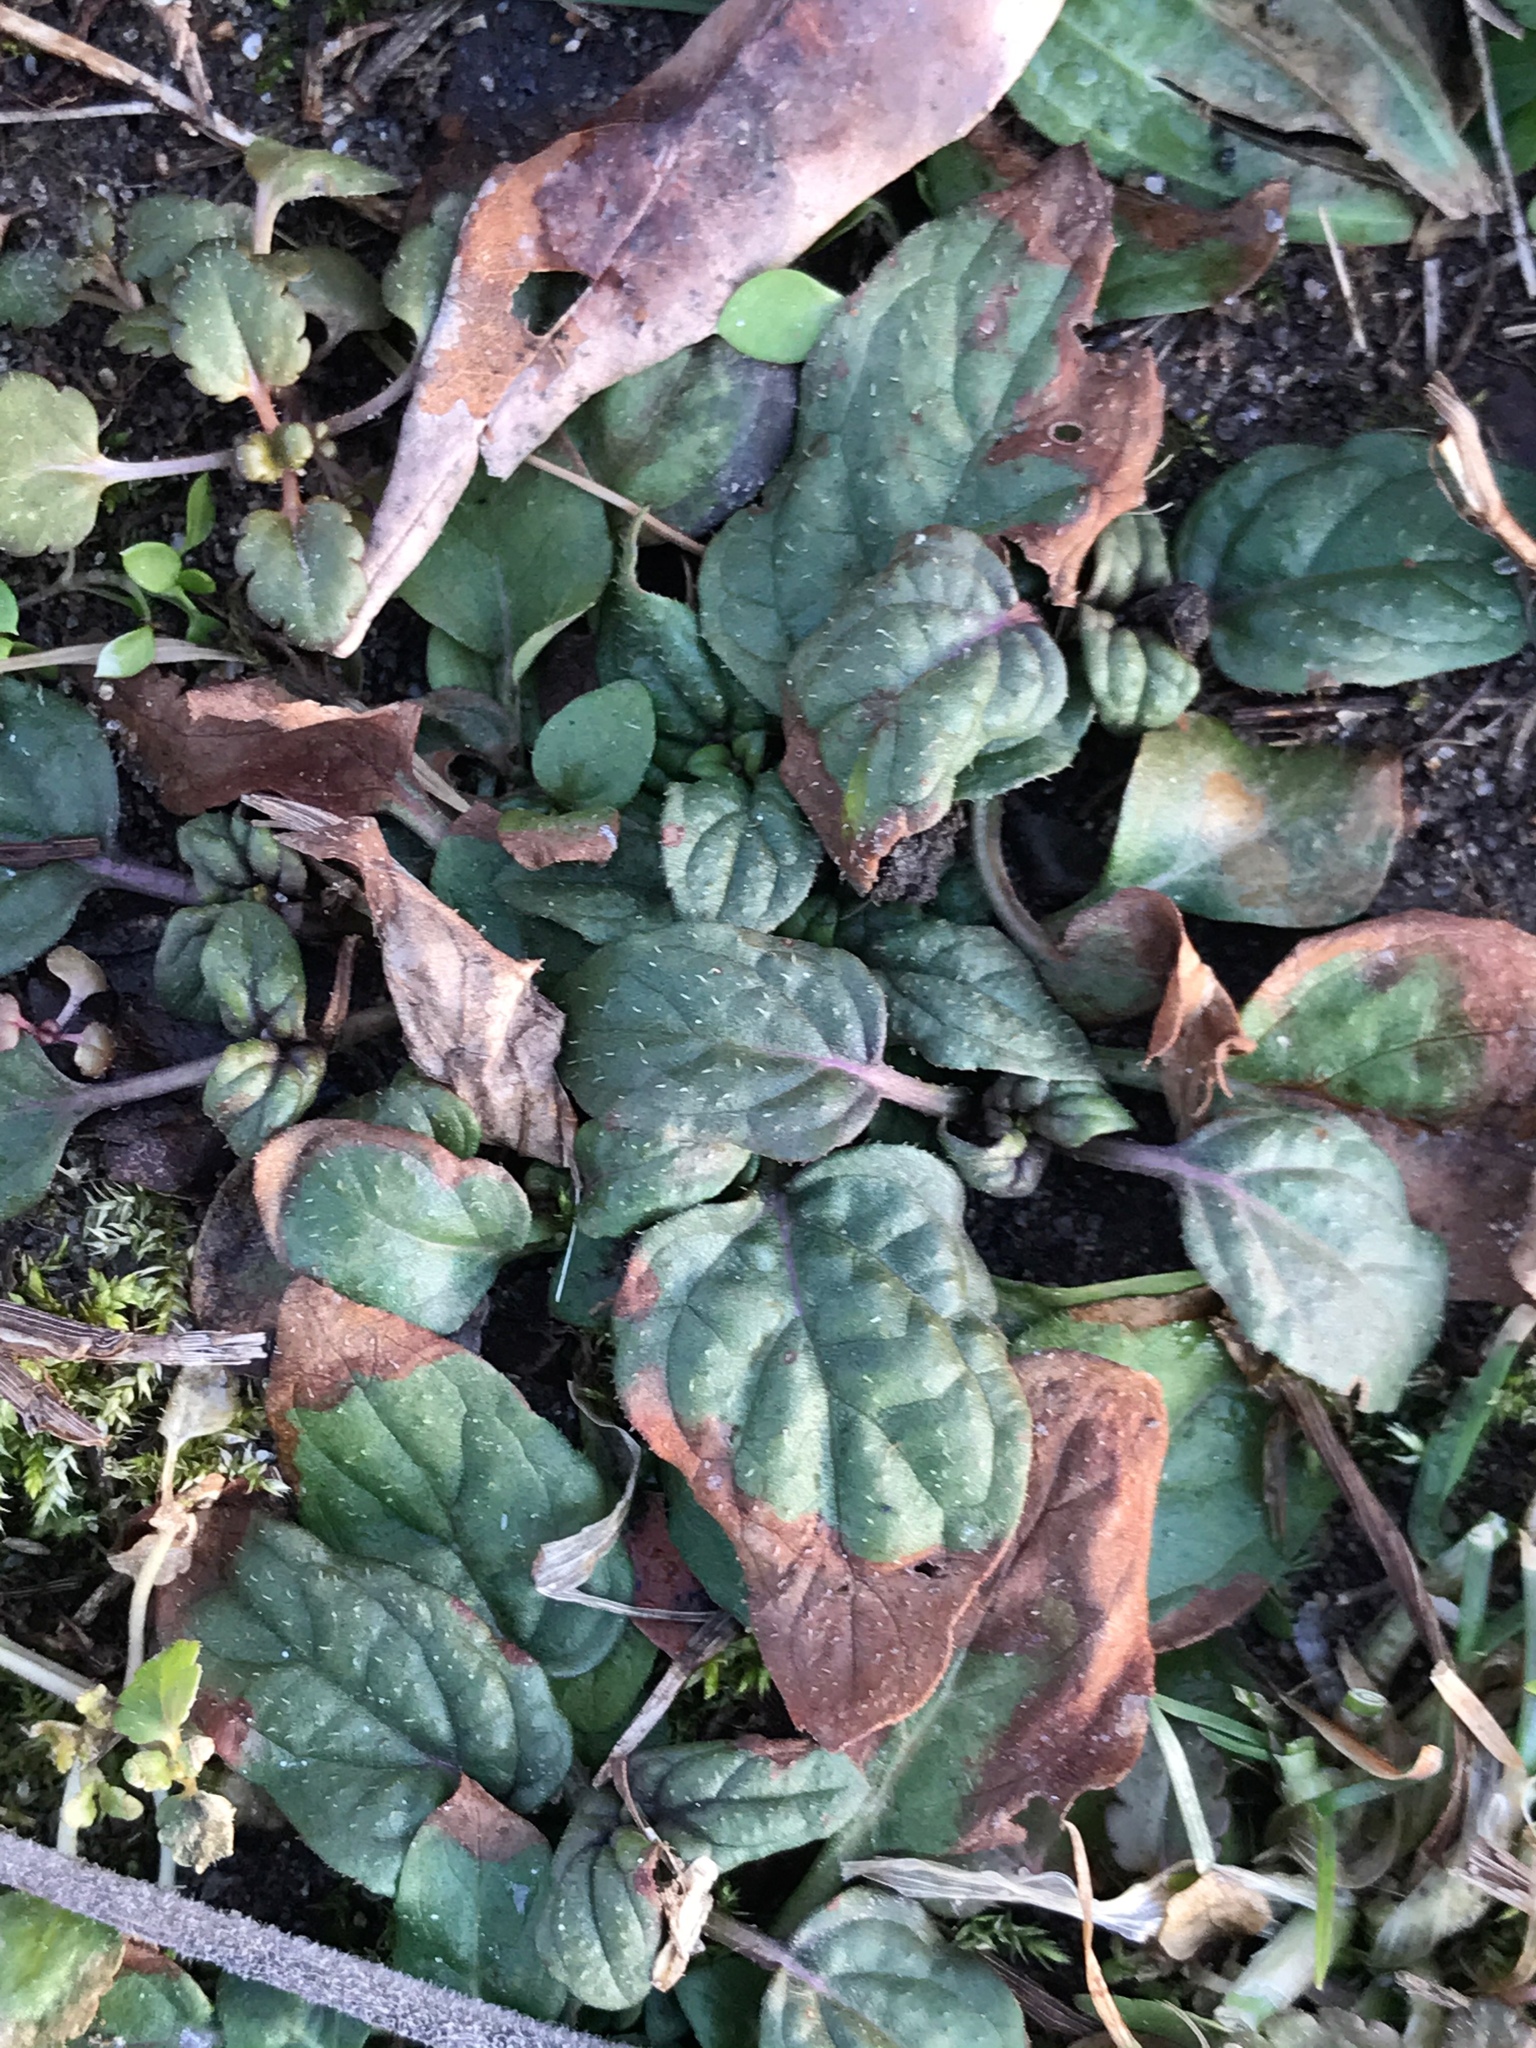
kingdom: Plantae
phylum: Tracheophyta
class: Magnoliopsida
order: Lamiales
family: Lamiaceae
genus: Prunella
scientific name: Prunella vulgaris
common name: Heal-all
